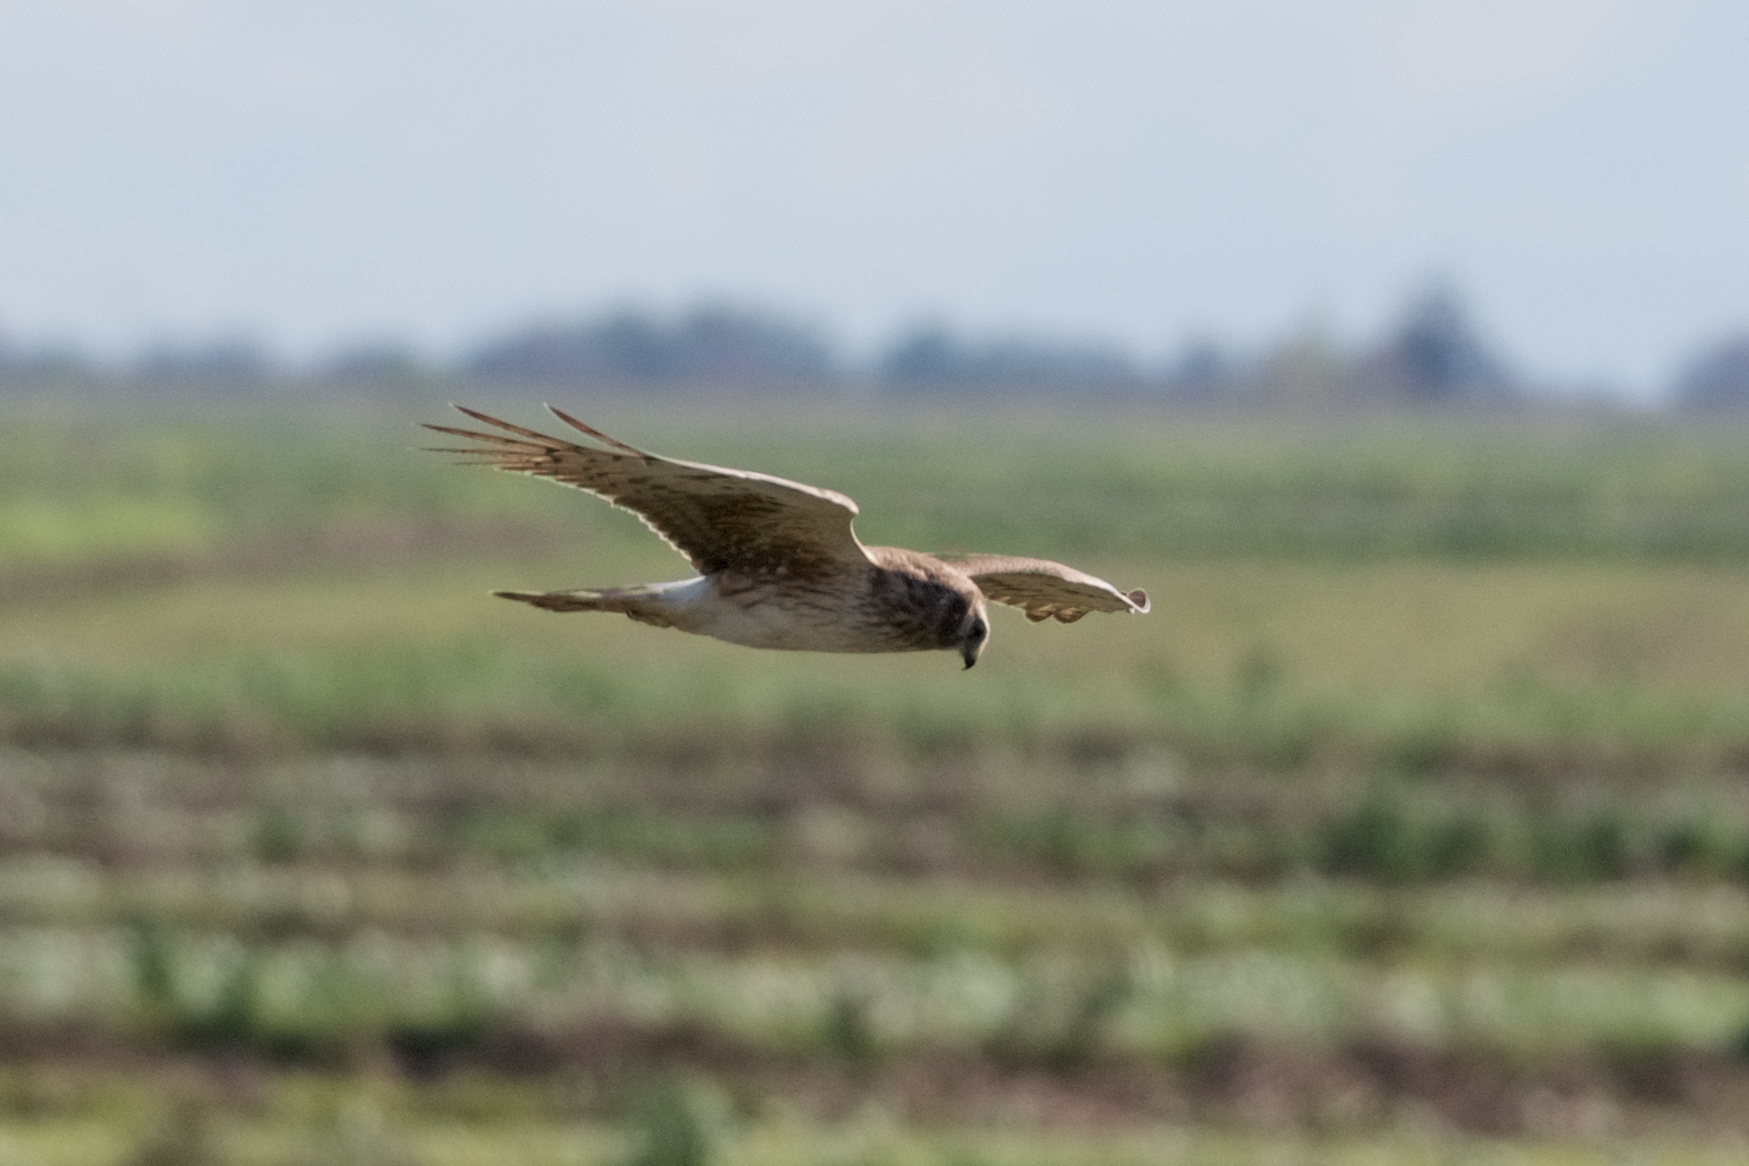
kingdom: Animalia
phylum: Chordata
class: Aves
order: Accipitriformes
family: Accipitridae
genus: Circus
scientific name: Circus cyaneus
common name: Hen harrier
